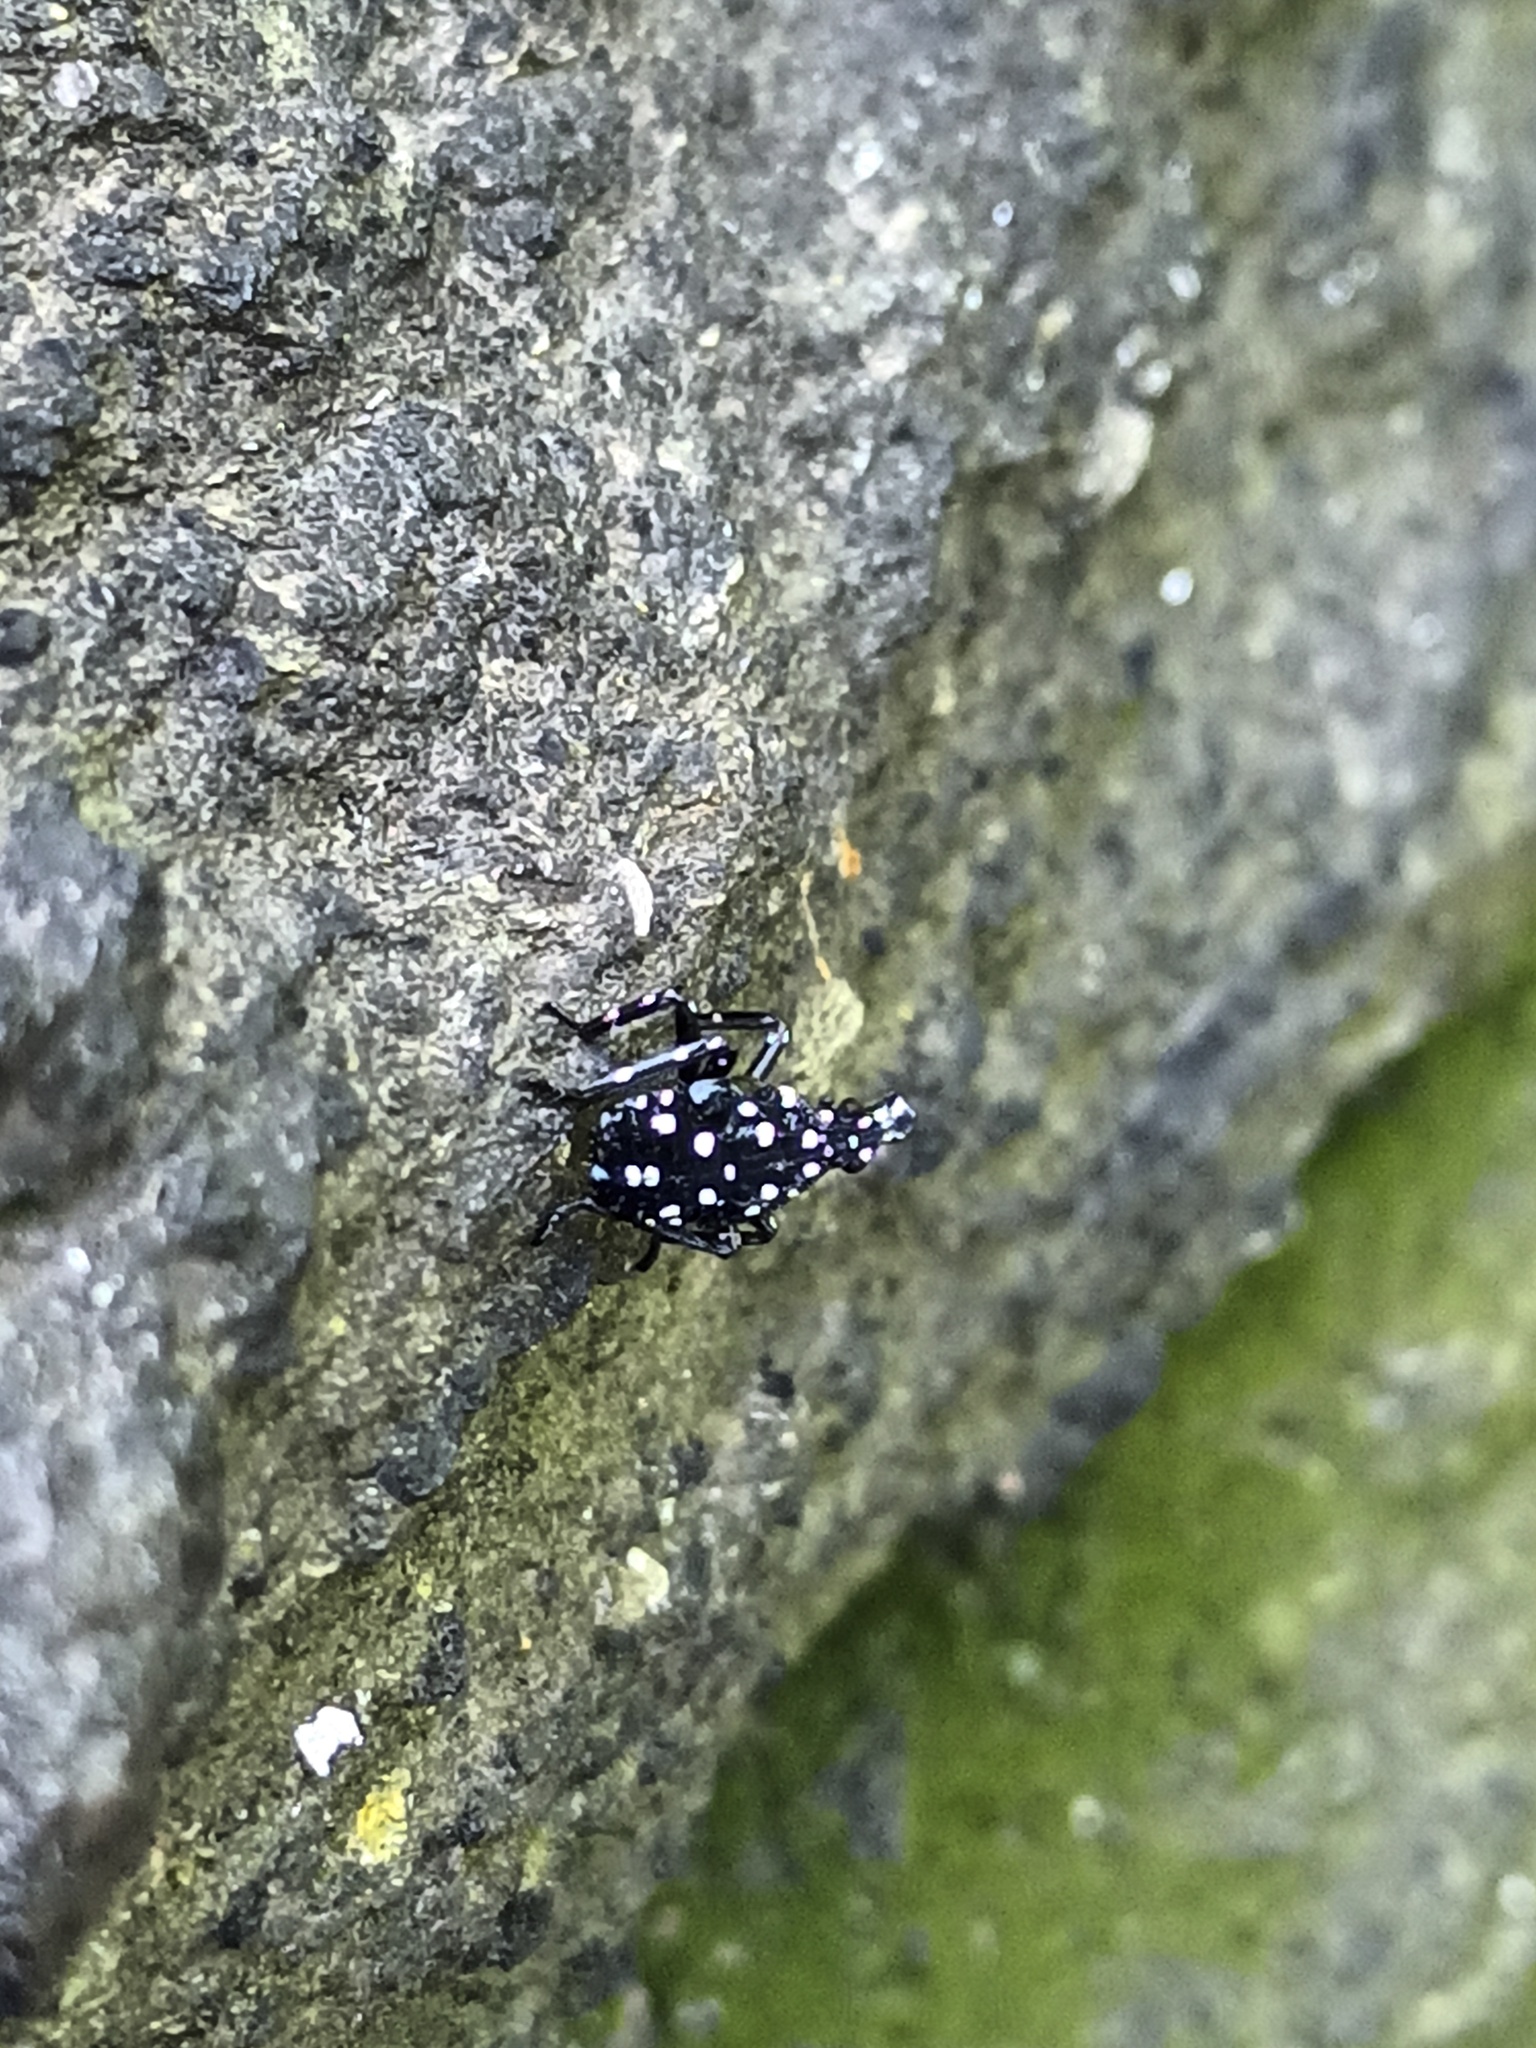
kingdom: Animalia
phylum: Arthropoda
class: Insecta
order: Hemiptera
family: Fulgoridae
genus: Lycorma
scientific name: Lycorma delicatula
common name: Spotted lanternfly
